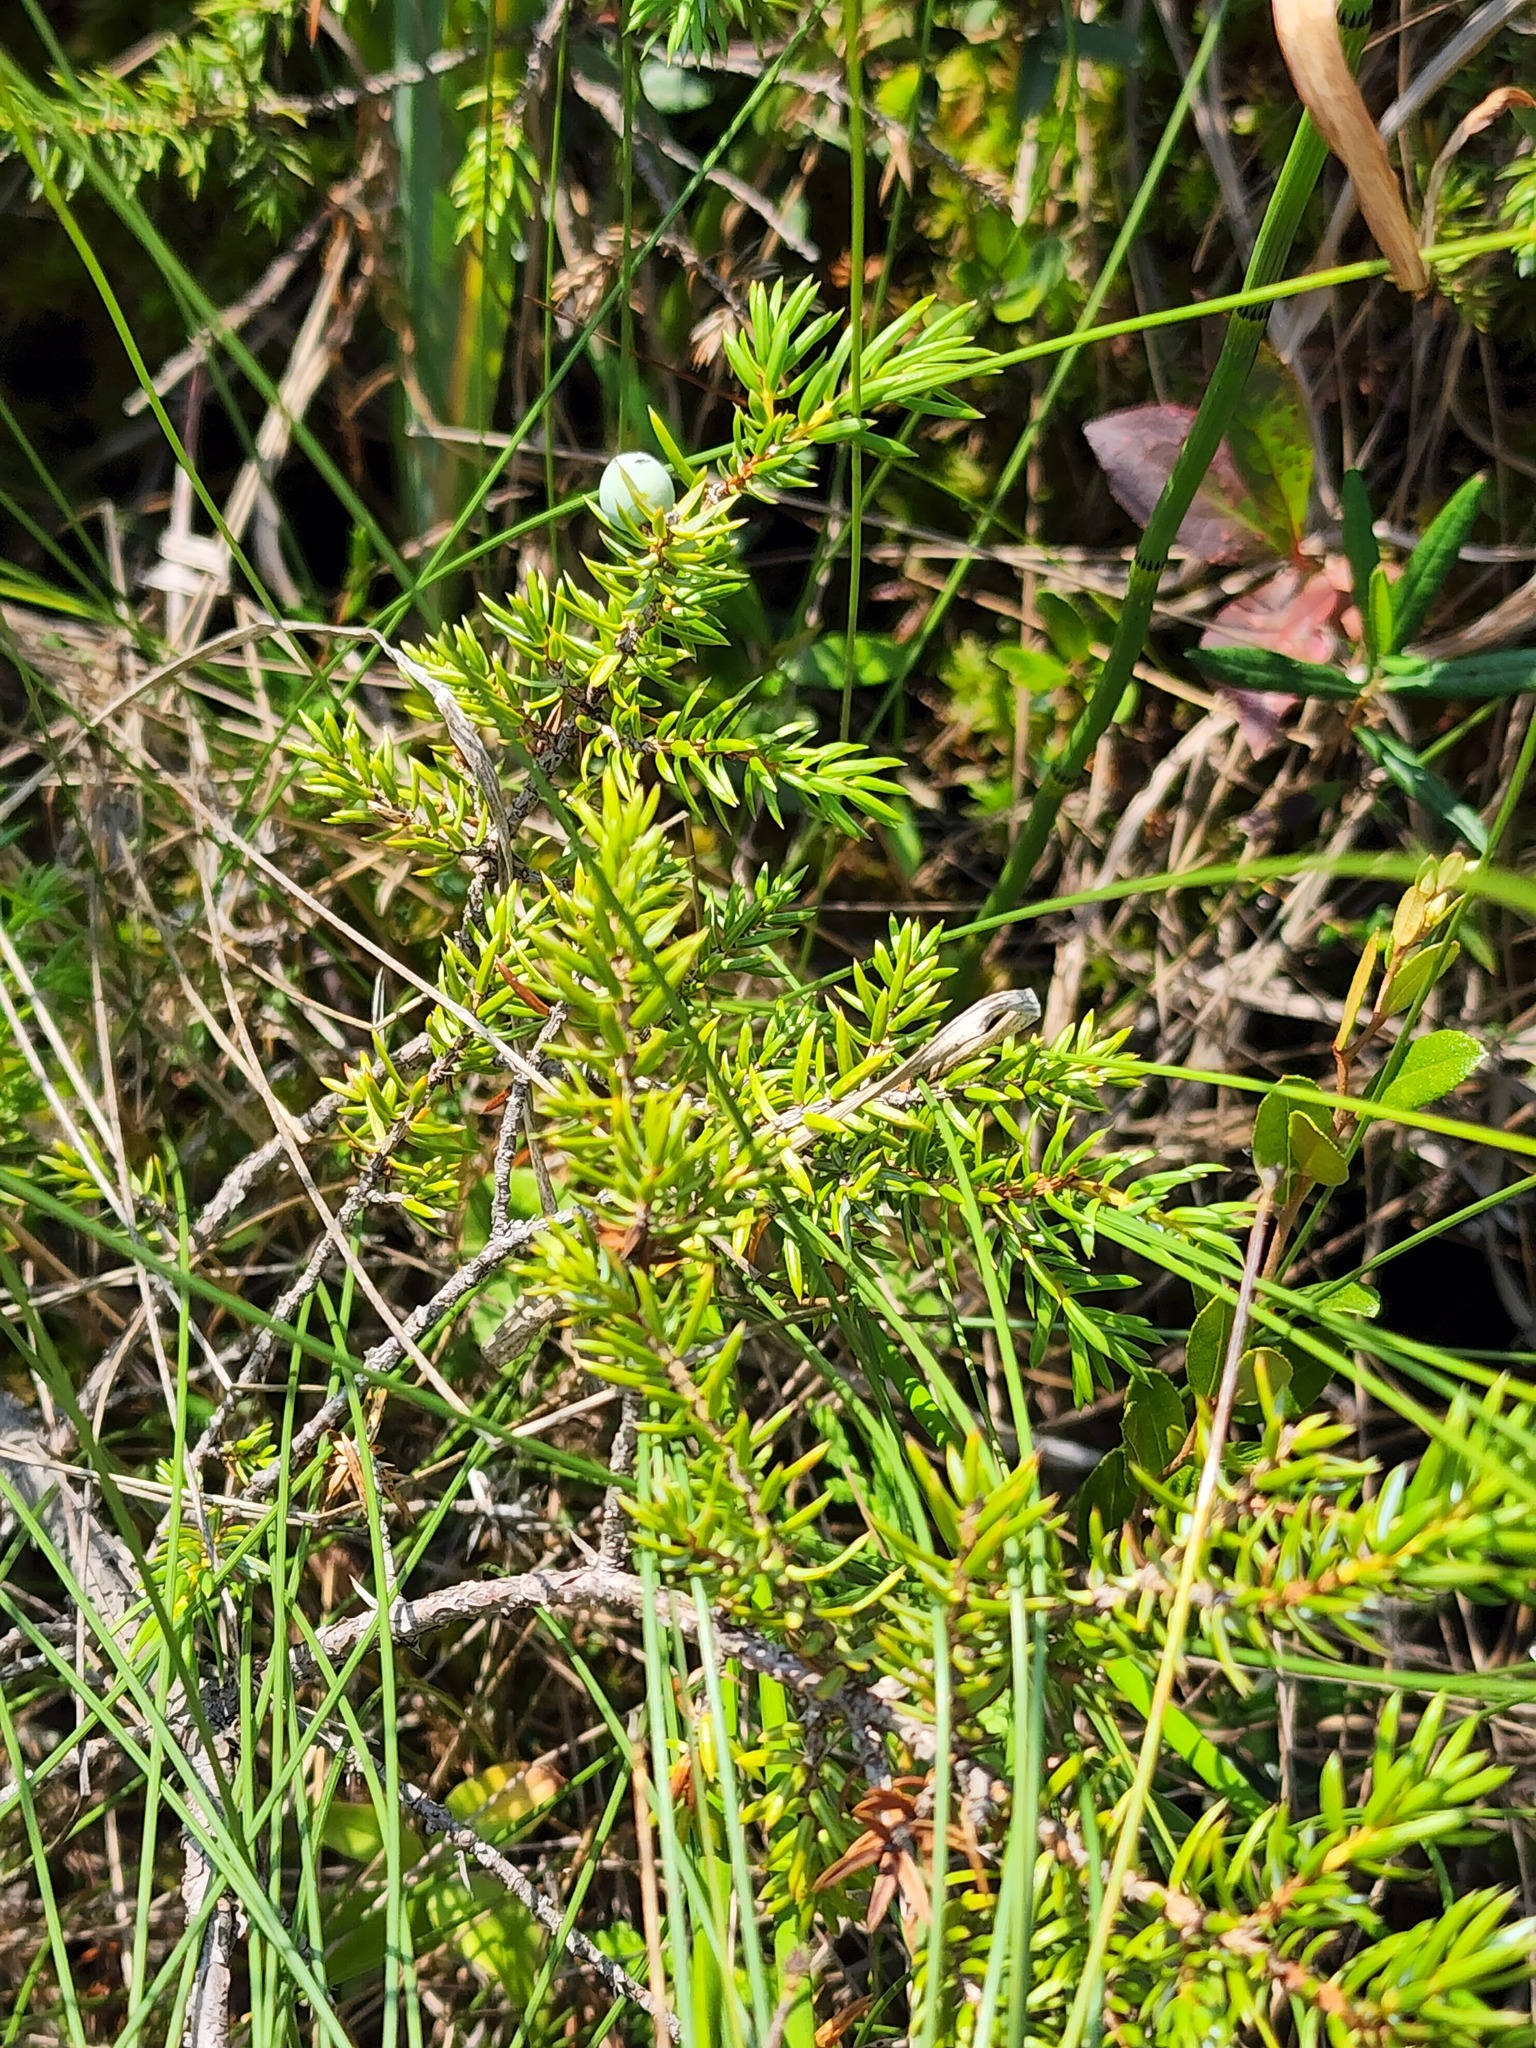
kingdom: Plantae
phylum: Tracheophyta
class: Pinopsida
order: Pinales
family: Cupressaceae
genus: Juniperus
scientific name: Juniperus communis
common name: Common juniper
